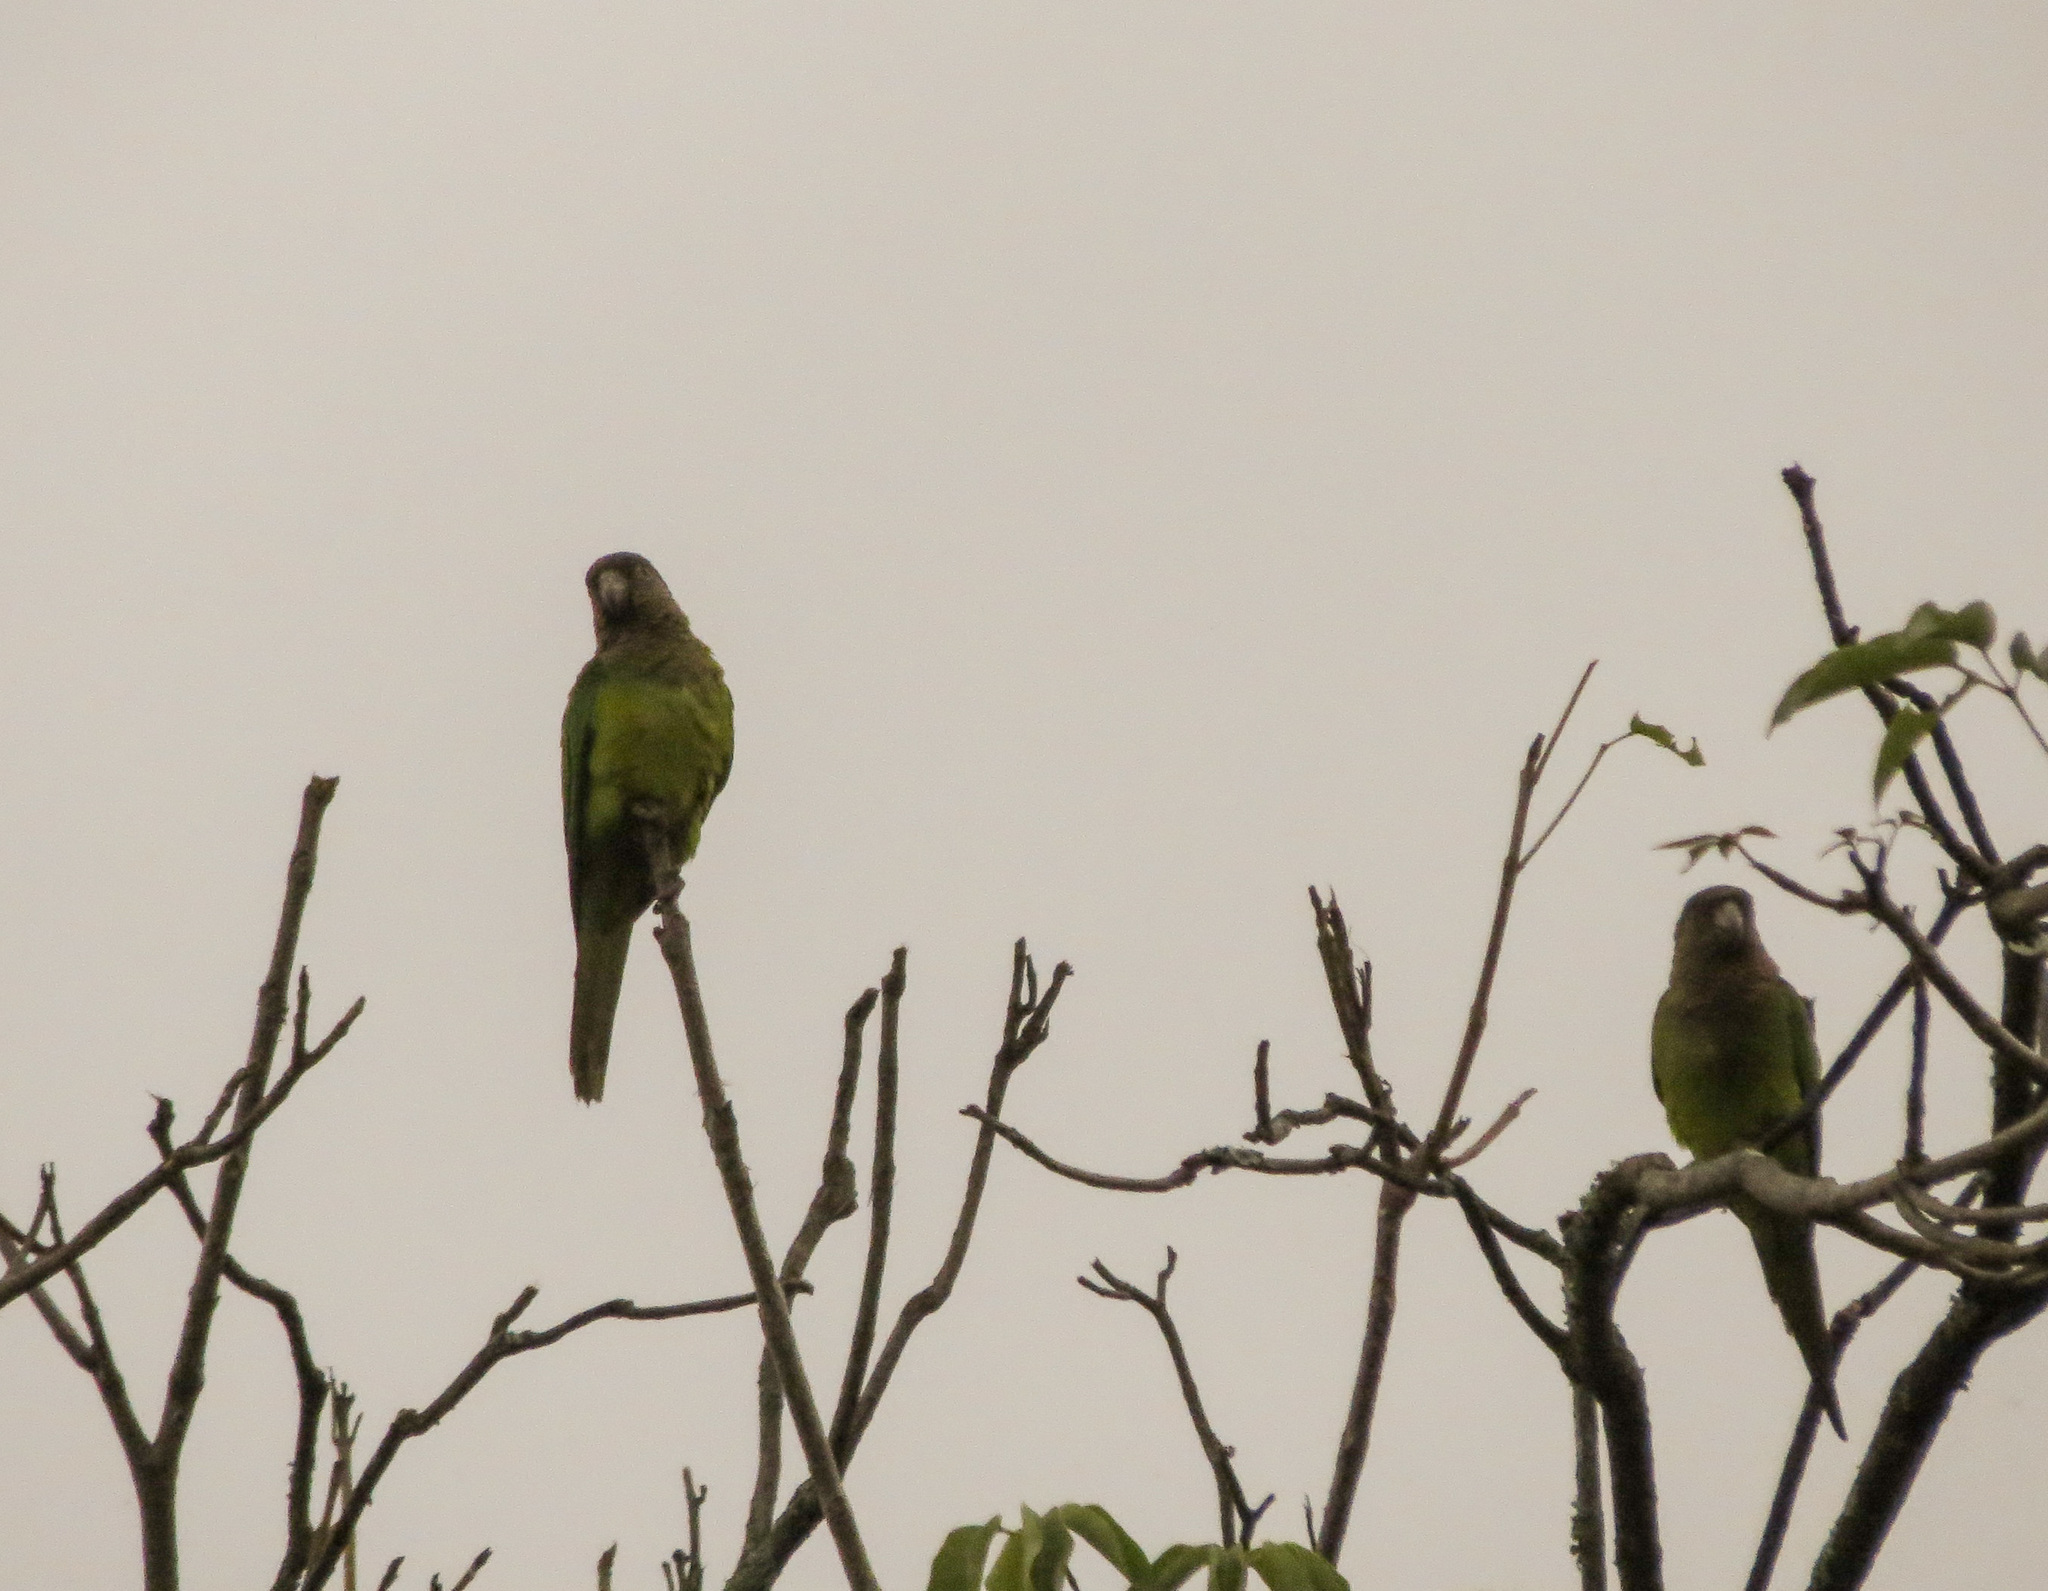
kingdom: Animalia
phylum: Chordata
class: Aves
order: Psittaciformes
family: Psittacidae
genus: Aratinga
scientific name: Aratinga pertinax
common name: Brown-throated parakeet
